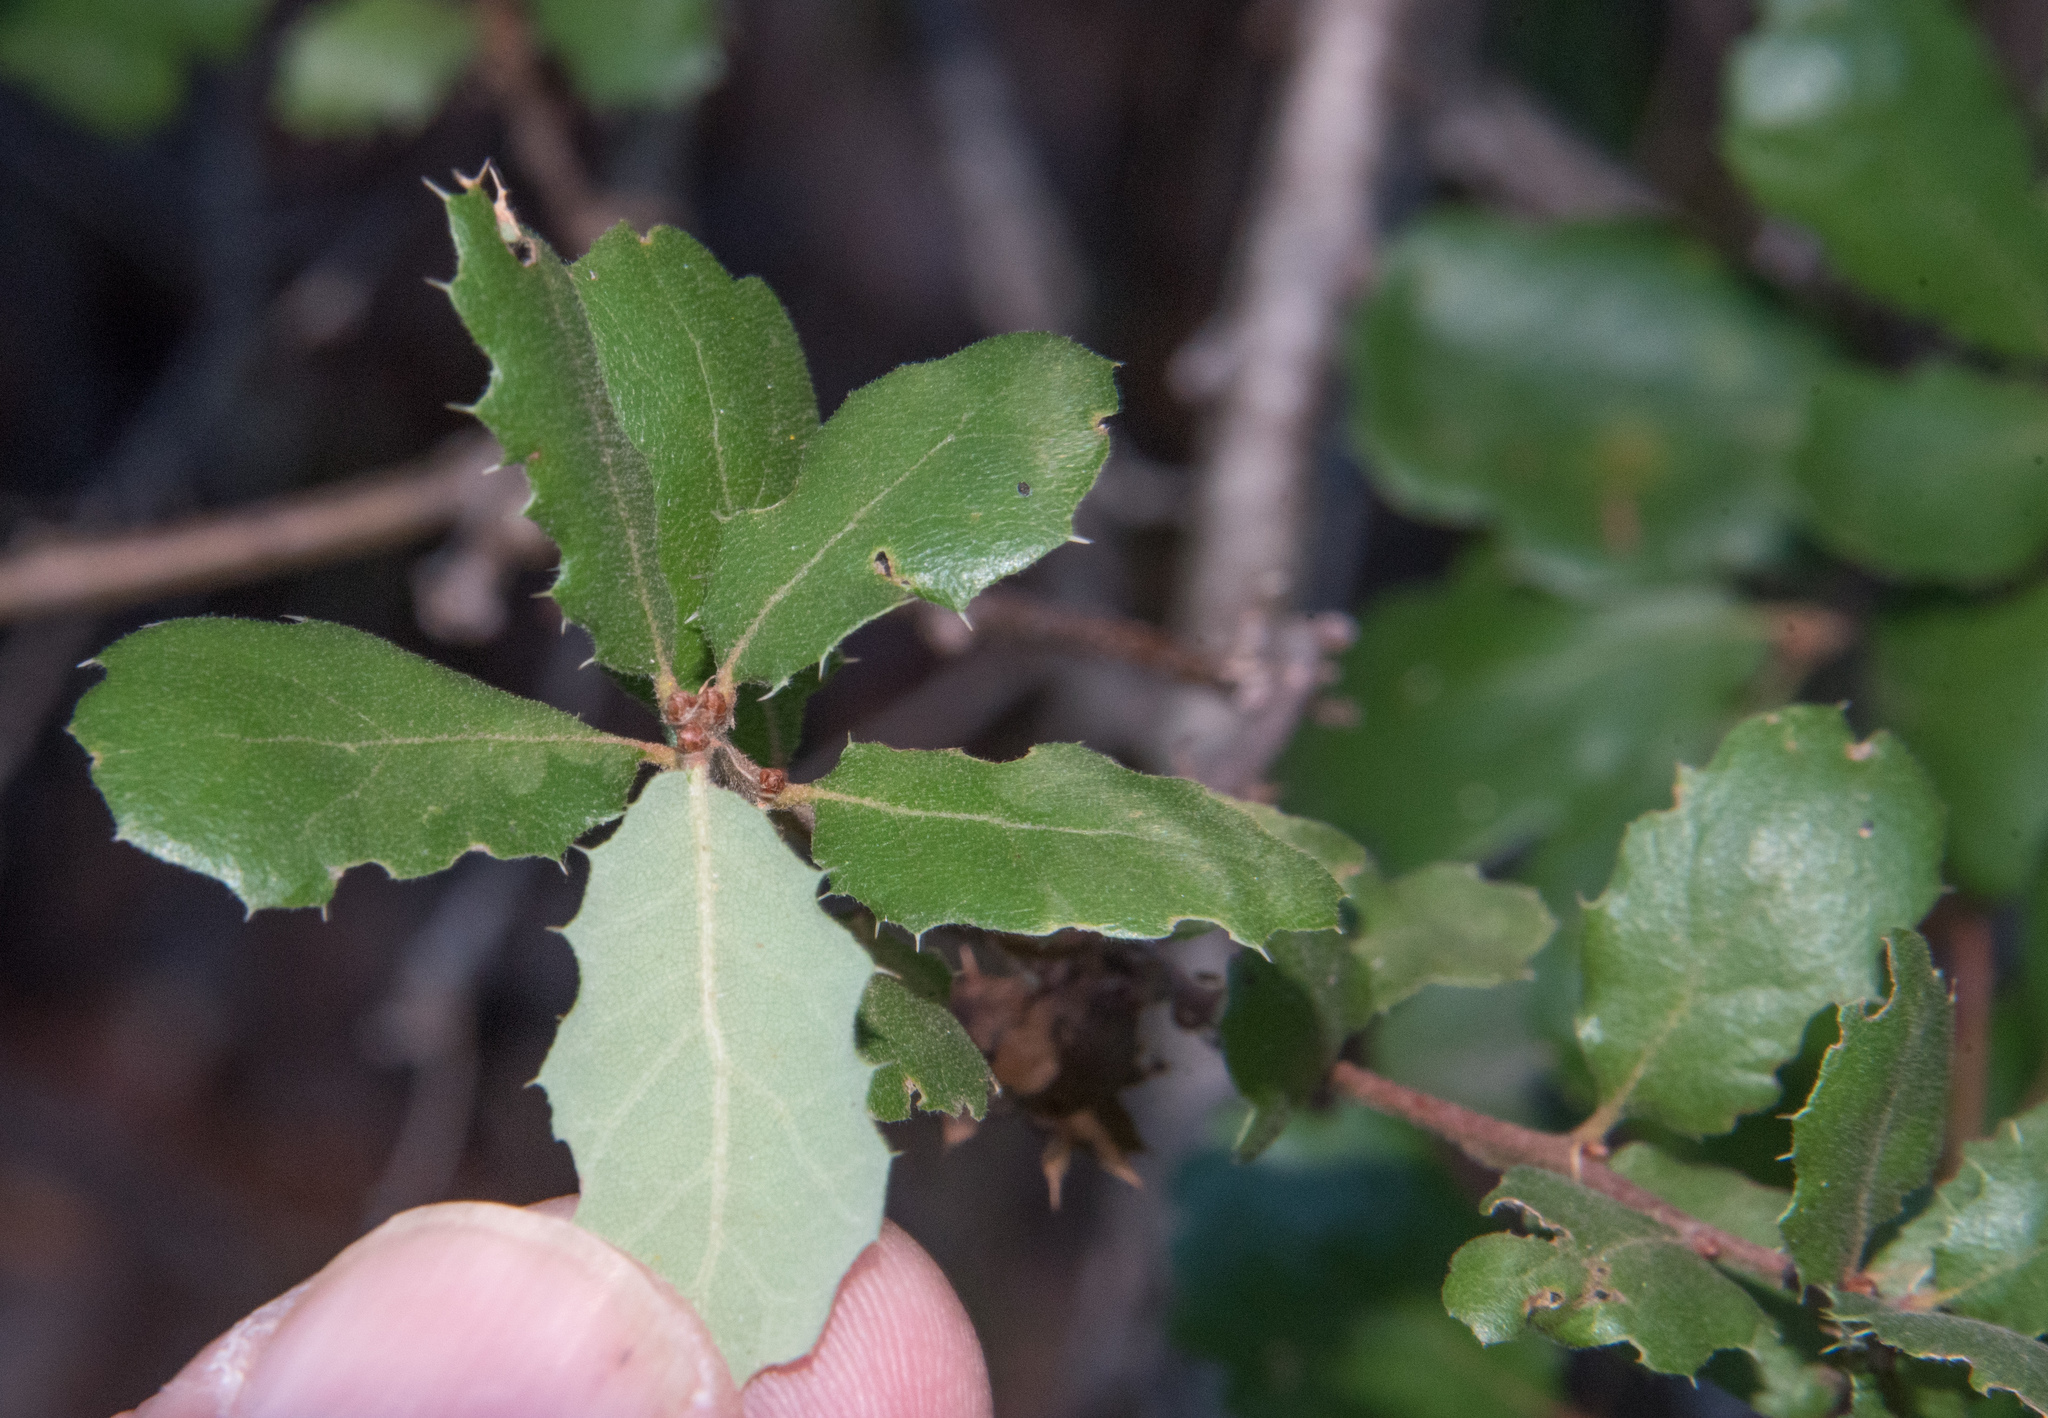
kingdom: Plantae
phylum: Tracheophyta
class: Magnoliopsida
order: Fagales
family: Fagaceae
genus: Quercus
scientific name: Quercus berberidifolia
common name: California scrub oak
